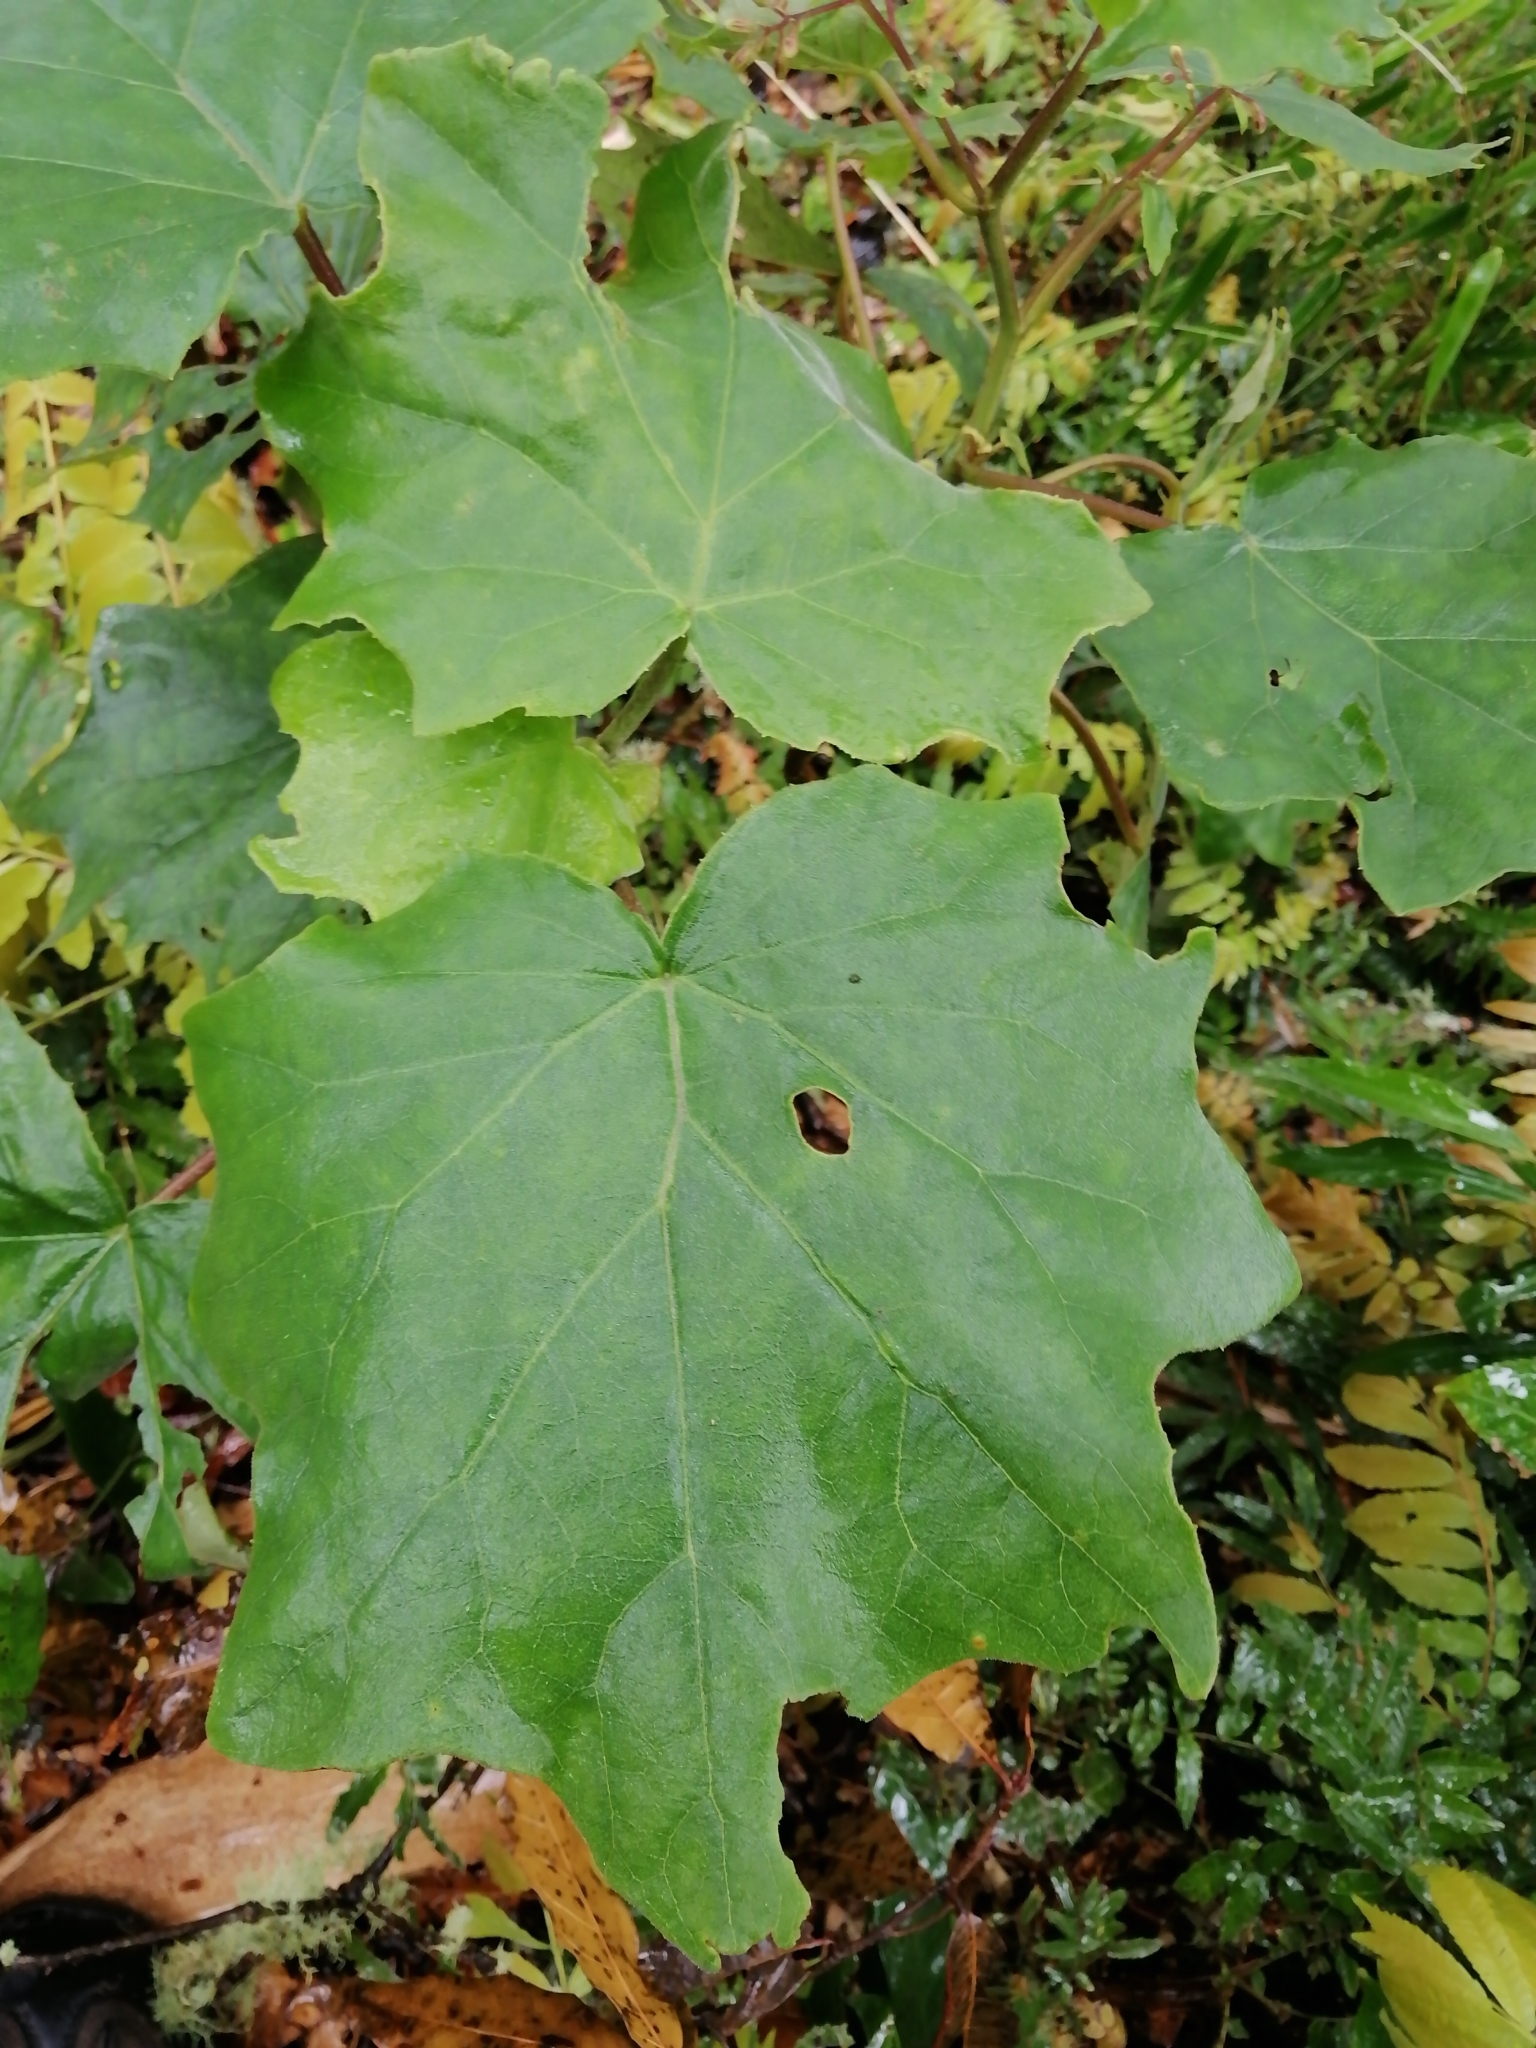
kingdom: Plantae
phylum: Tracheophyta
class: Magnoliopsida
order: Asterales
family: Asteraceae
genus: Roldana
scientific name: Roldana oaxacana
